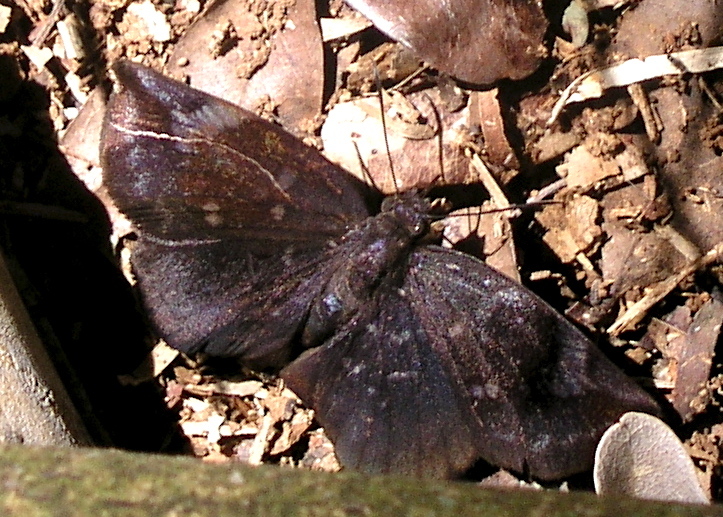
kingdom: Animalia
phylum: Arthropoda
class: Insecta
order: Lepidoptera
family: Hesperiidae
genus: Achlyodes
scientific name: Achlyodes thraso
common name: Sickle-winged skipper
